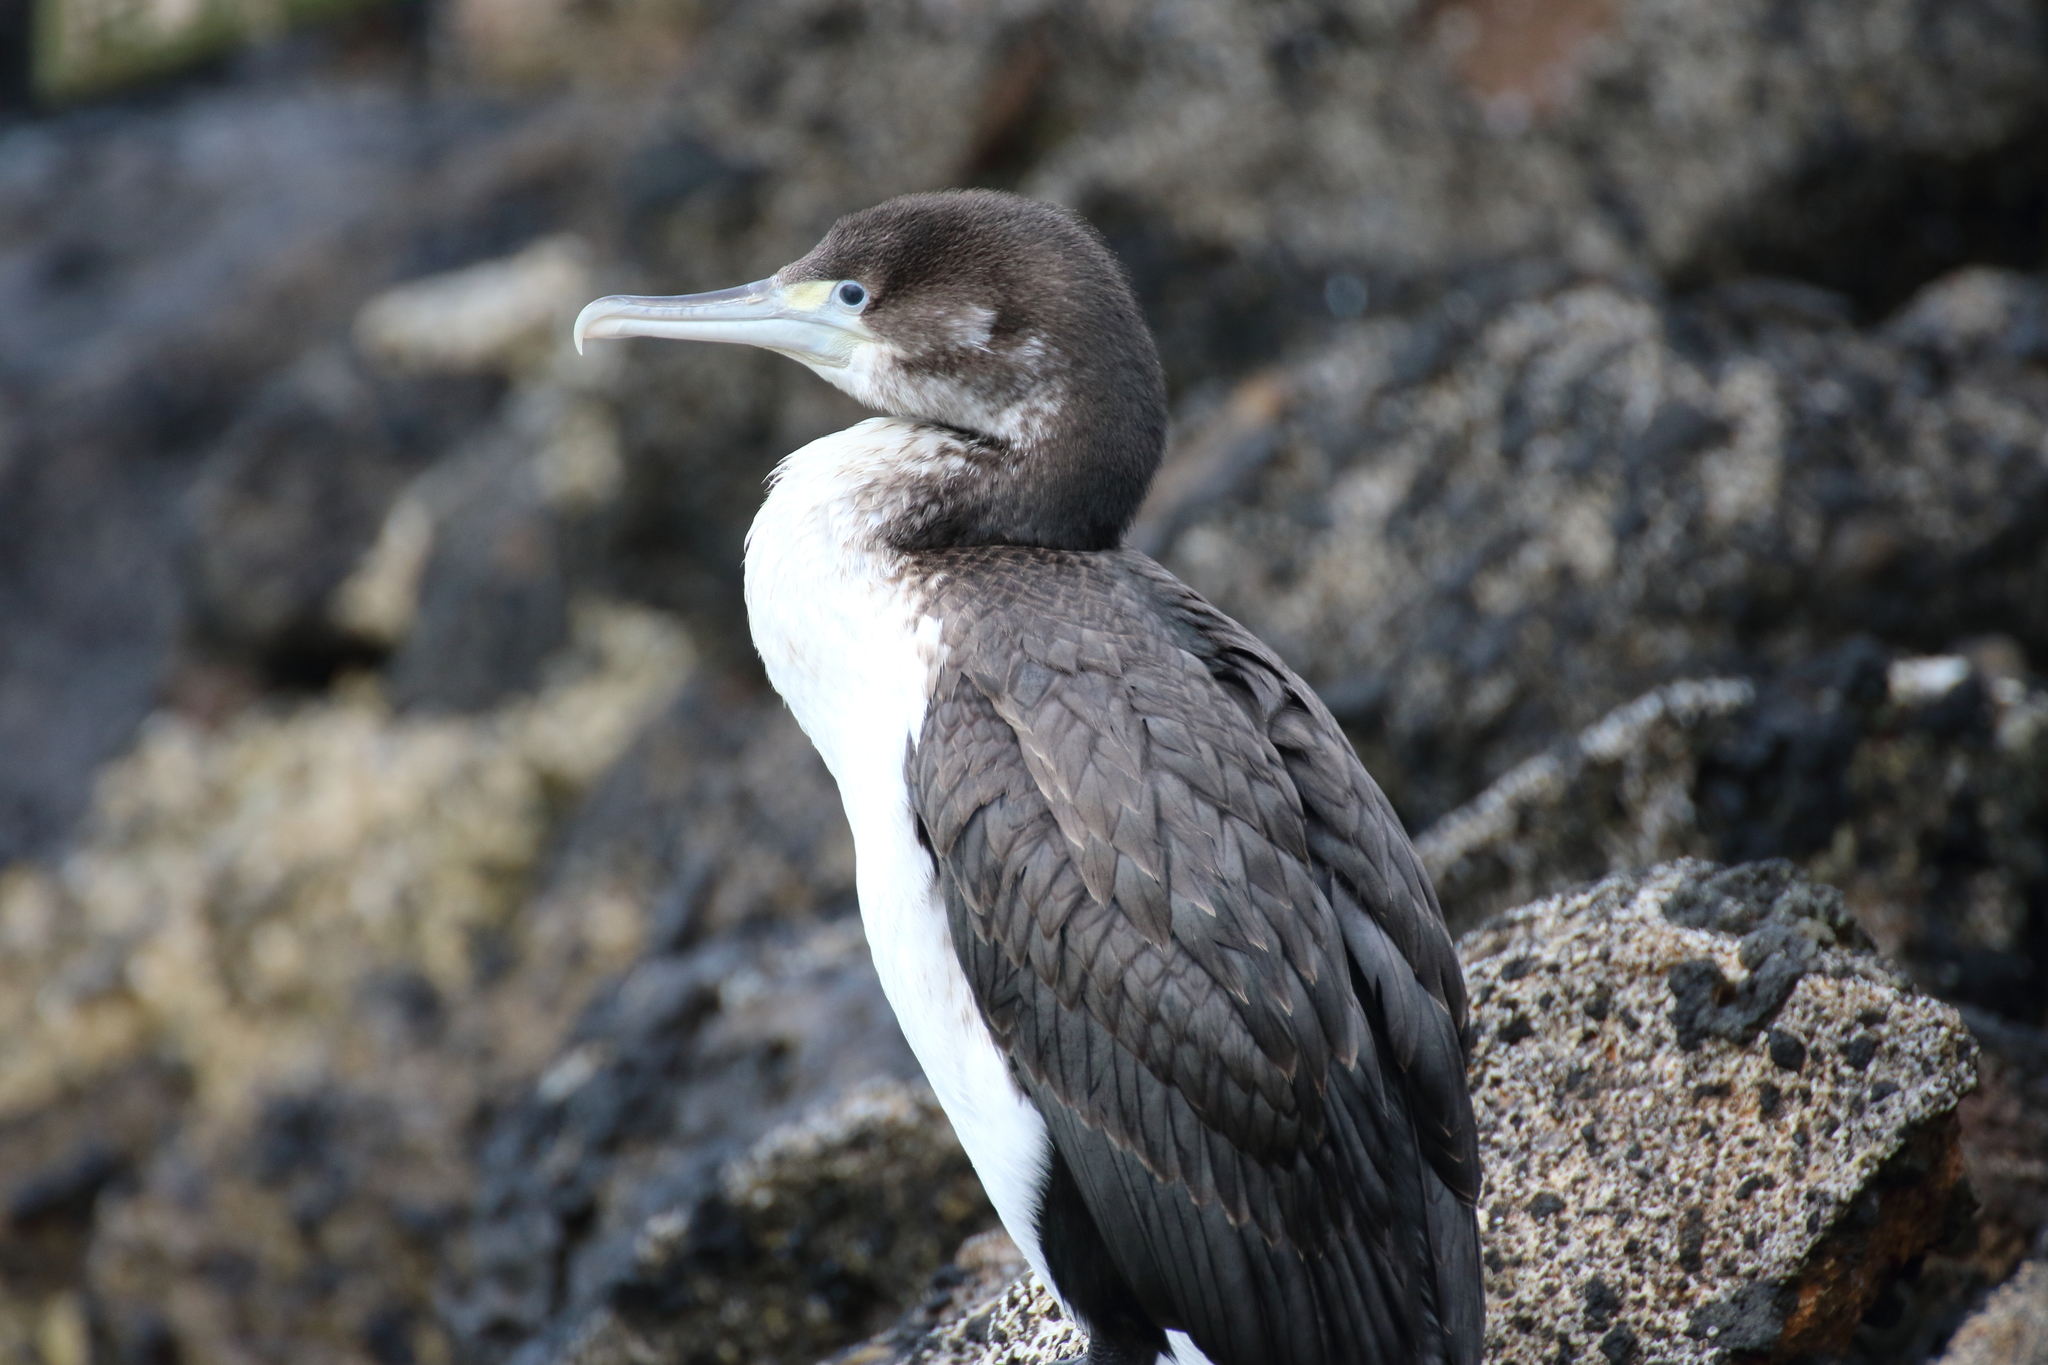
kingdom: Animalia
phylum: Chordata
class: Aves
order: Suliformes
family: Phalacrocoracidae
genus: Phalacrocorax
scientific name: Phalacrocorax varius
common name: Pied cormorant
